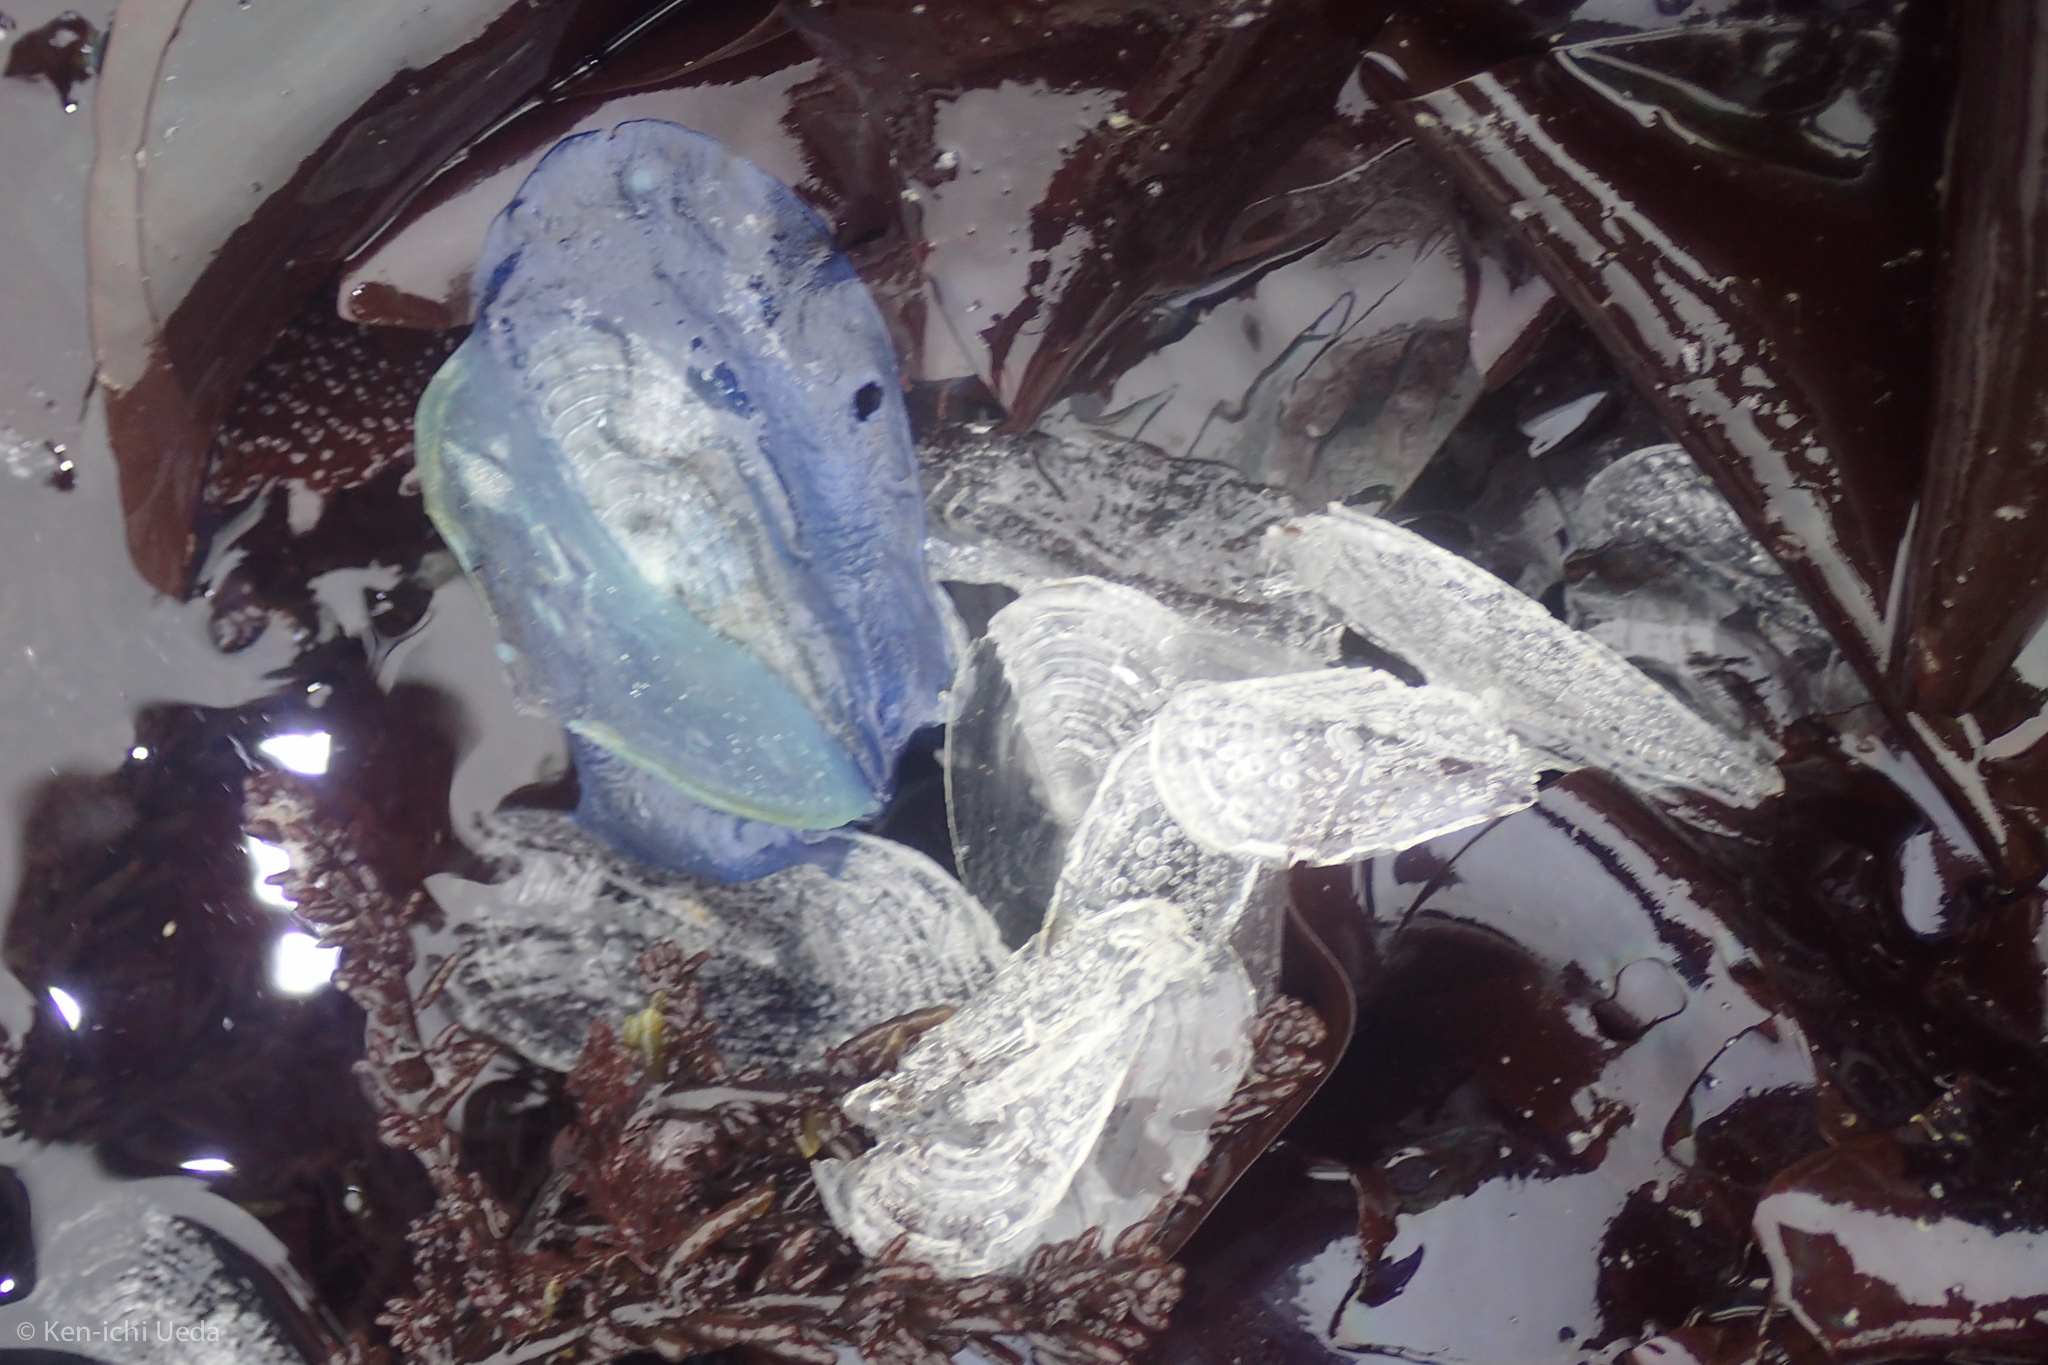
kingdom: Animalia
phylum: Cnidaria
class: Hydrozoa
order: Anthoathecata
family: Porpitidae
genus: Velella
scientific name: Velella velella
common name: By-the-wind-sailor
